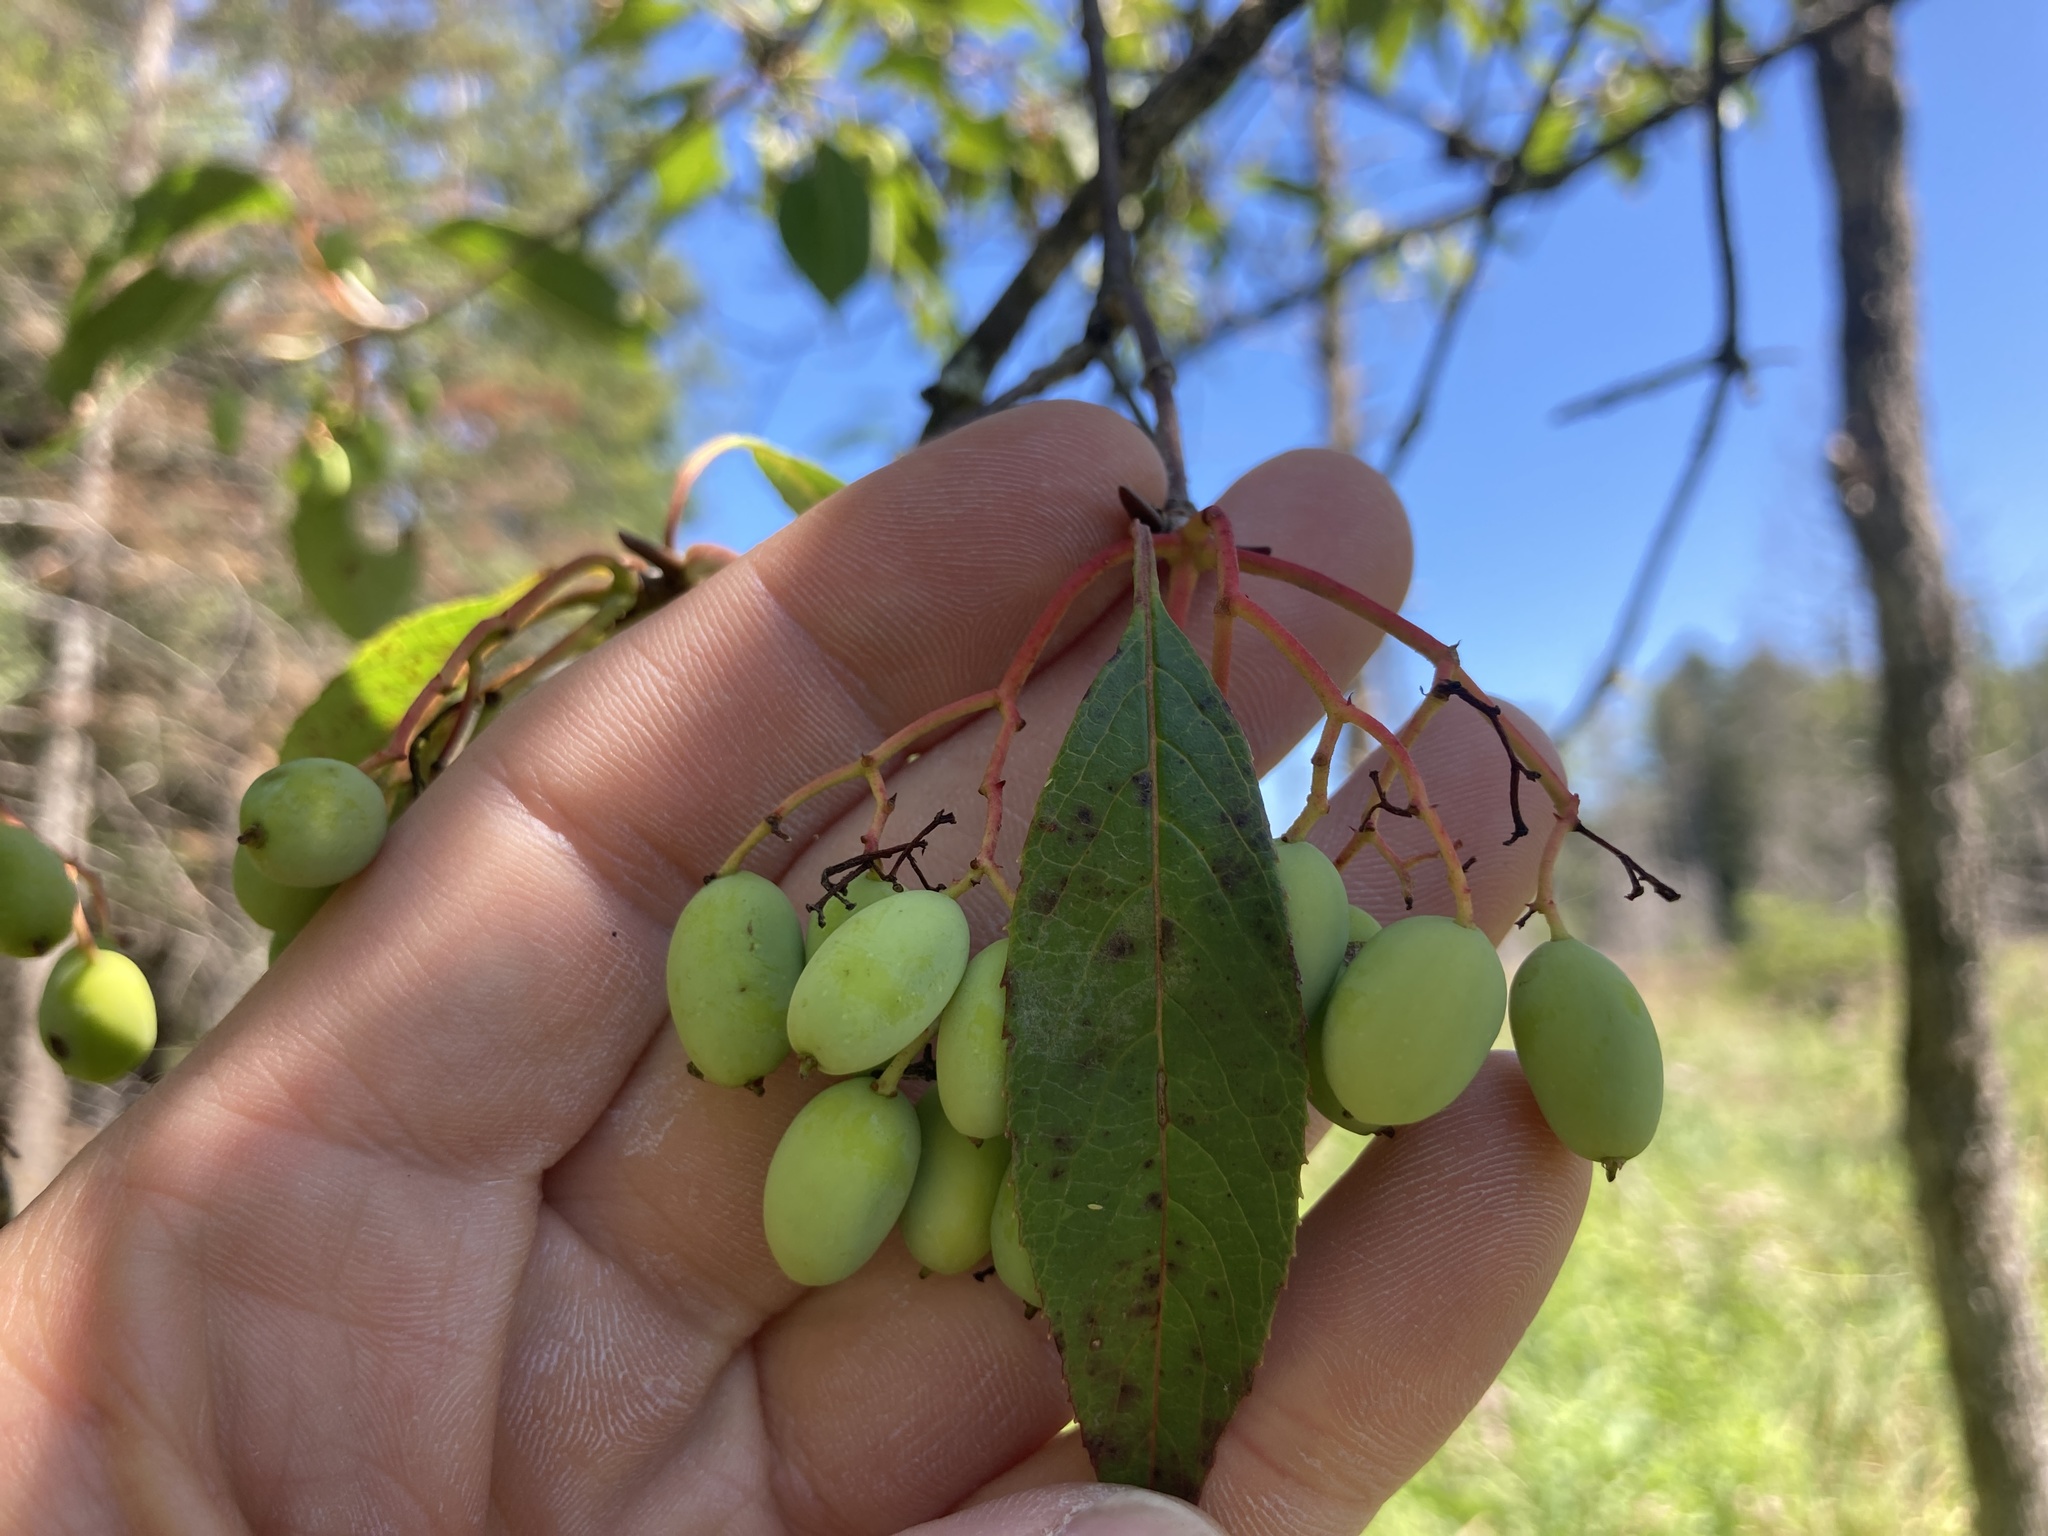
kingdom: Plantae
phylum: Tracheophyta
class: Magnoliopsida
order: Dipsacales
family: Viburnaceae
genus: Viburnum
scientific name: Viburnum lentago
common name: Black haw
